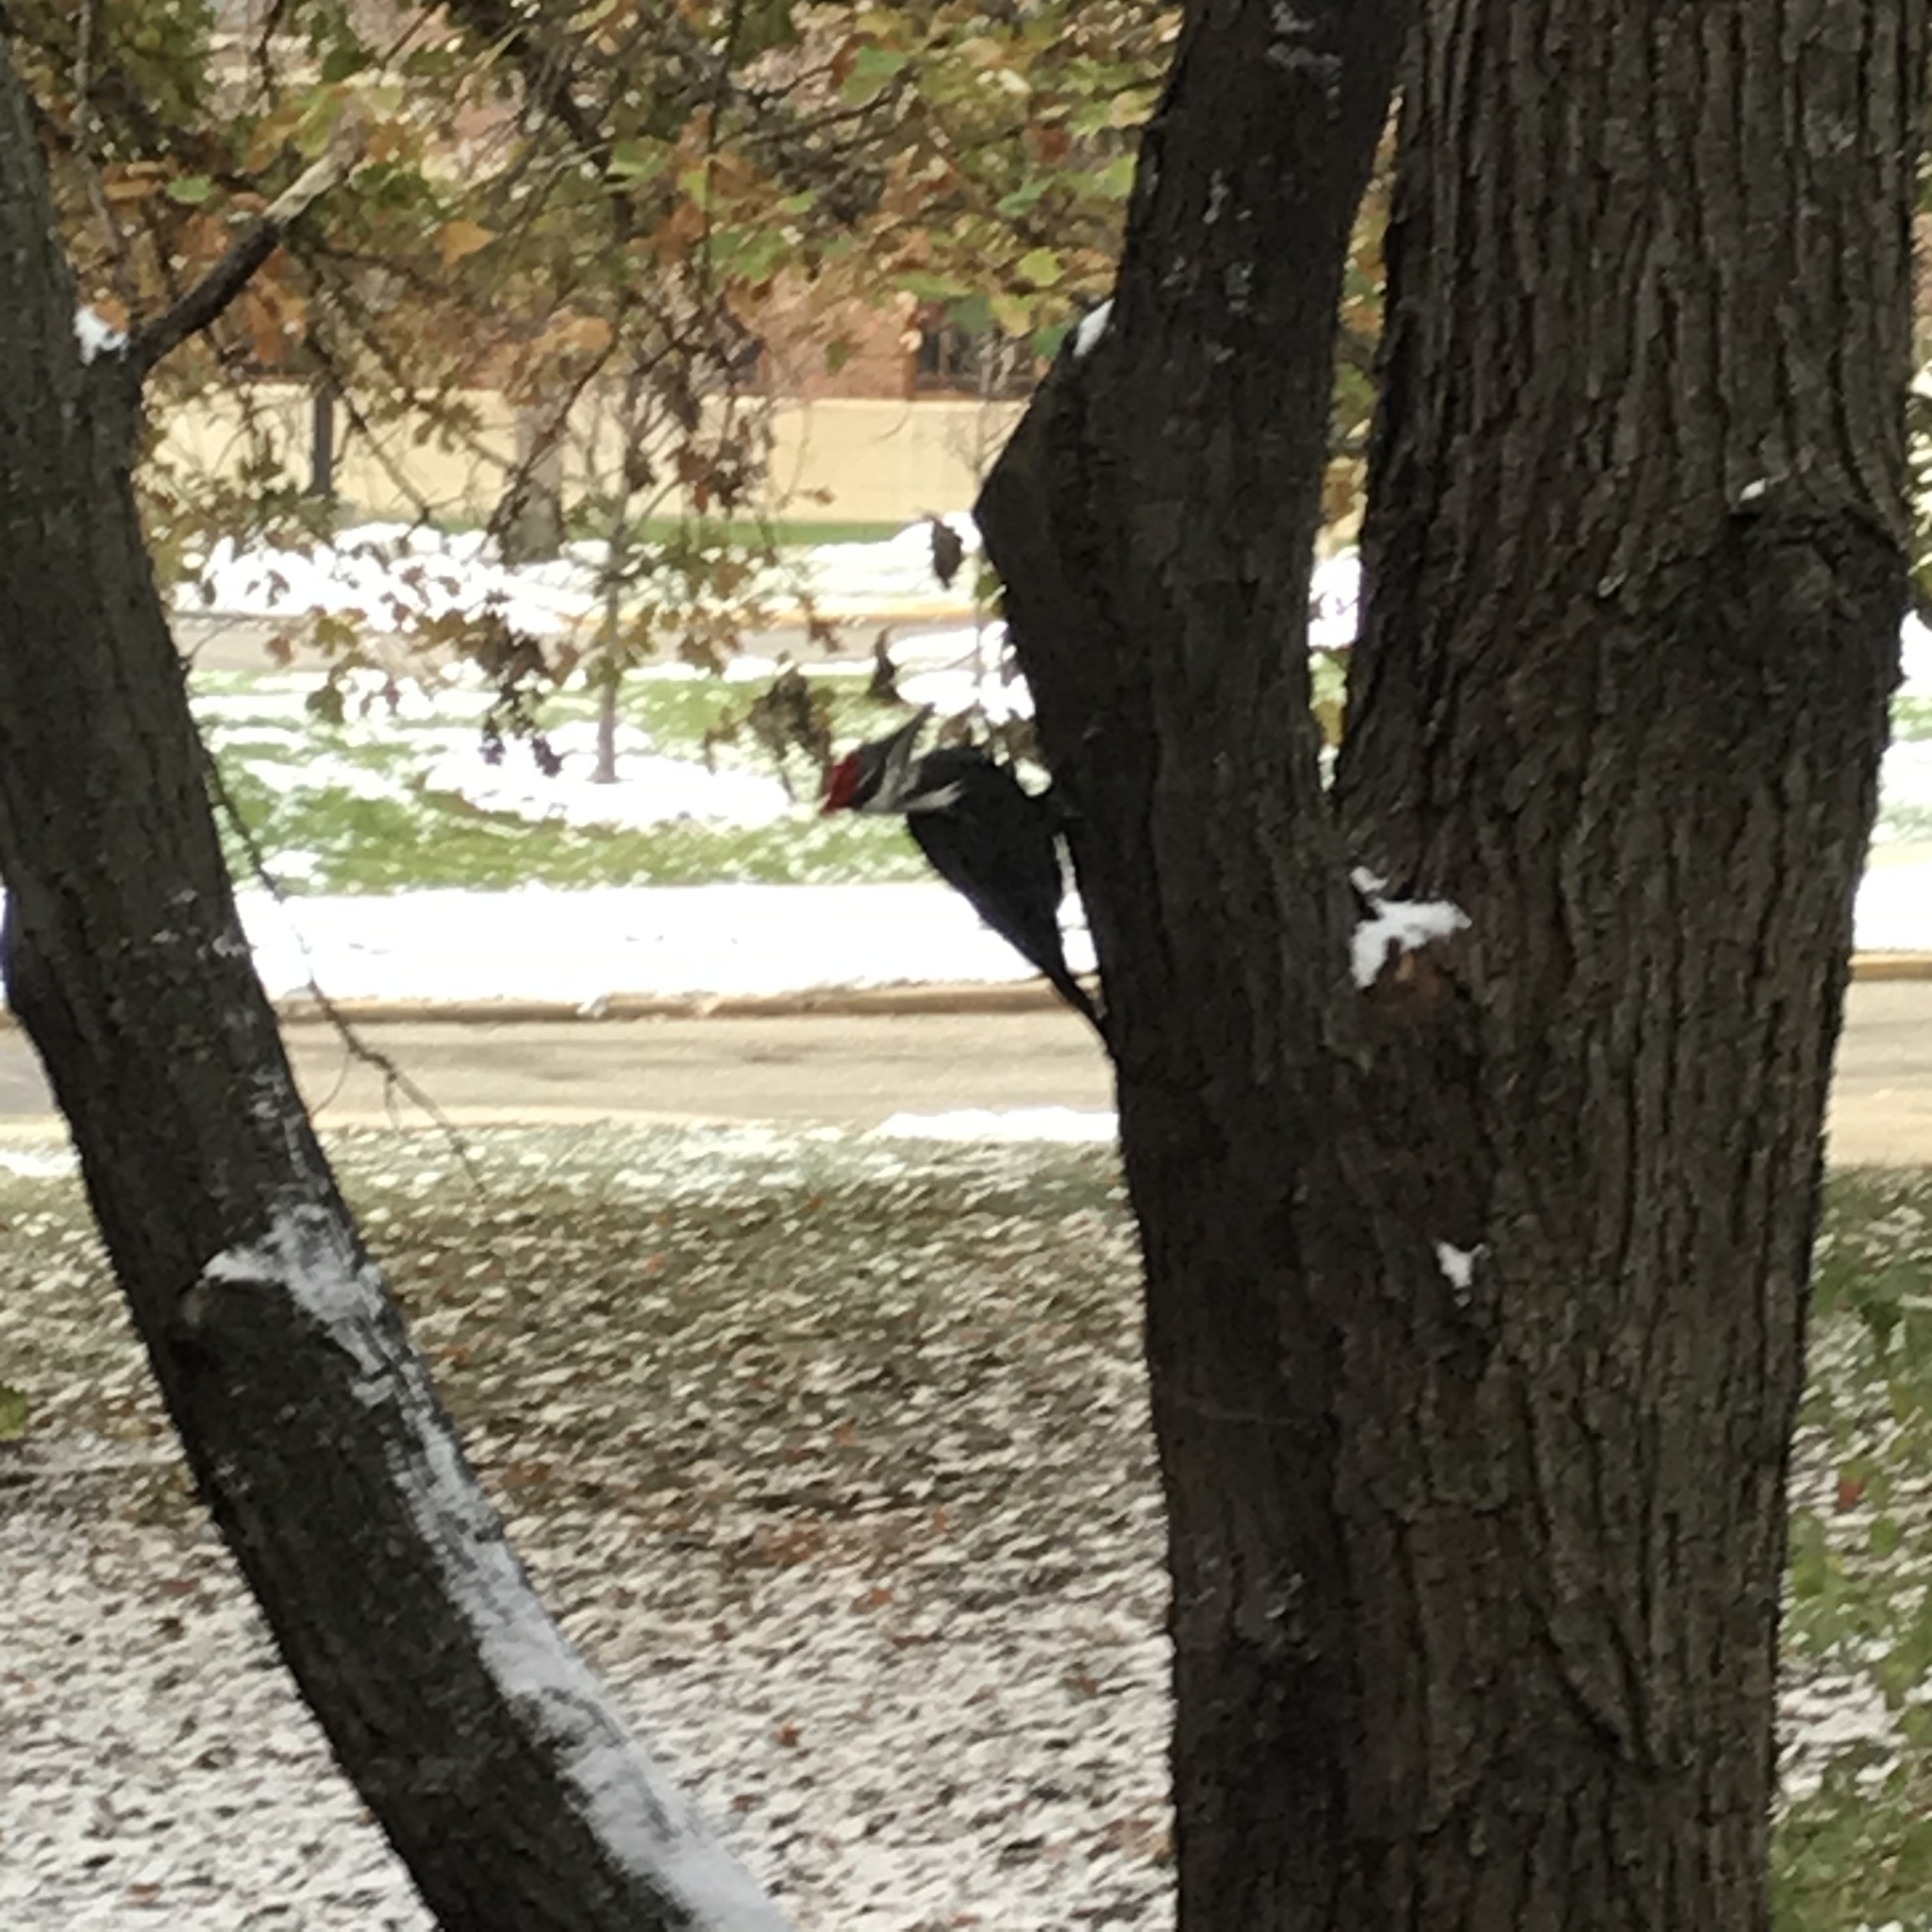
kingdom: Animalia
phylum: Chordata
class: Aves
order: Piciformes
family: Picidae
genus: Dryocopus
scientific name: Dryocopus pileatus
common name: Pileated woodpecker
